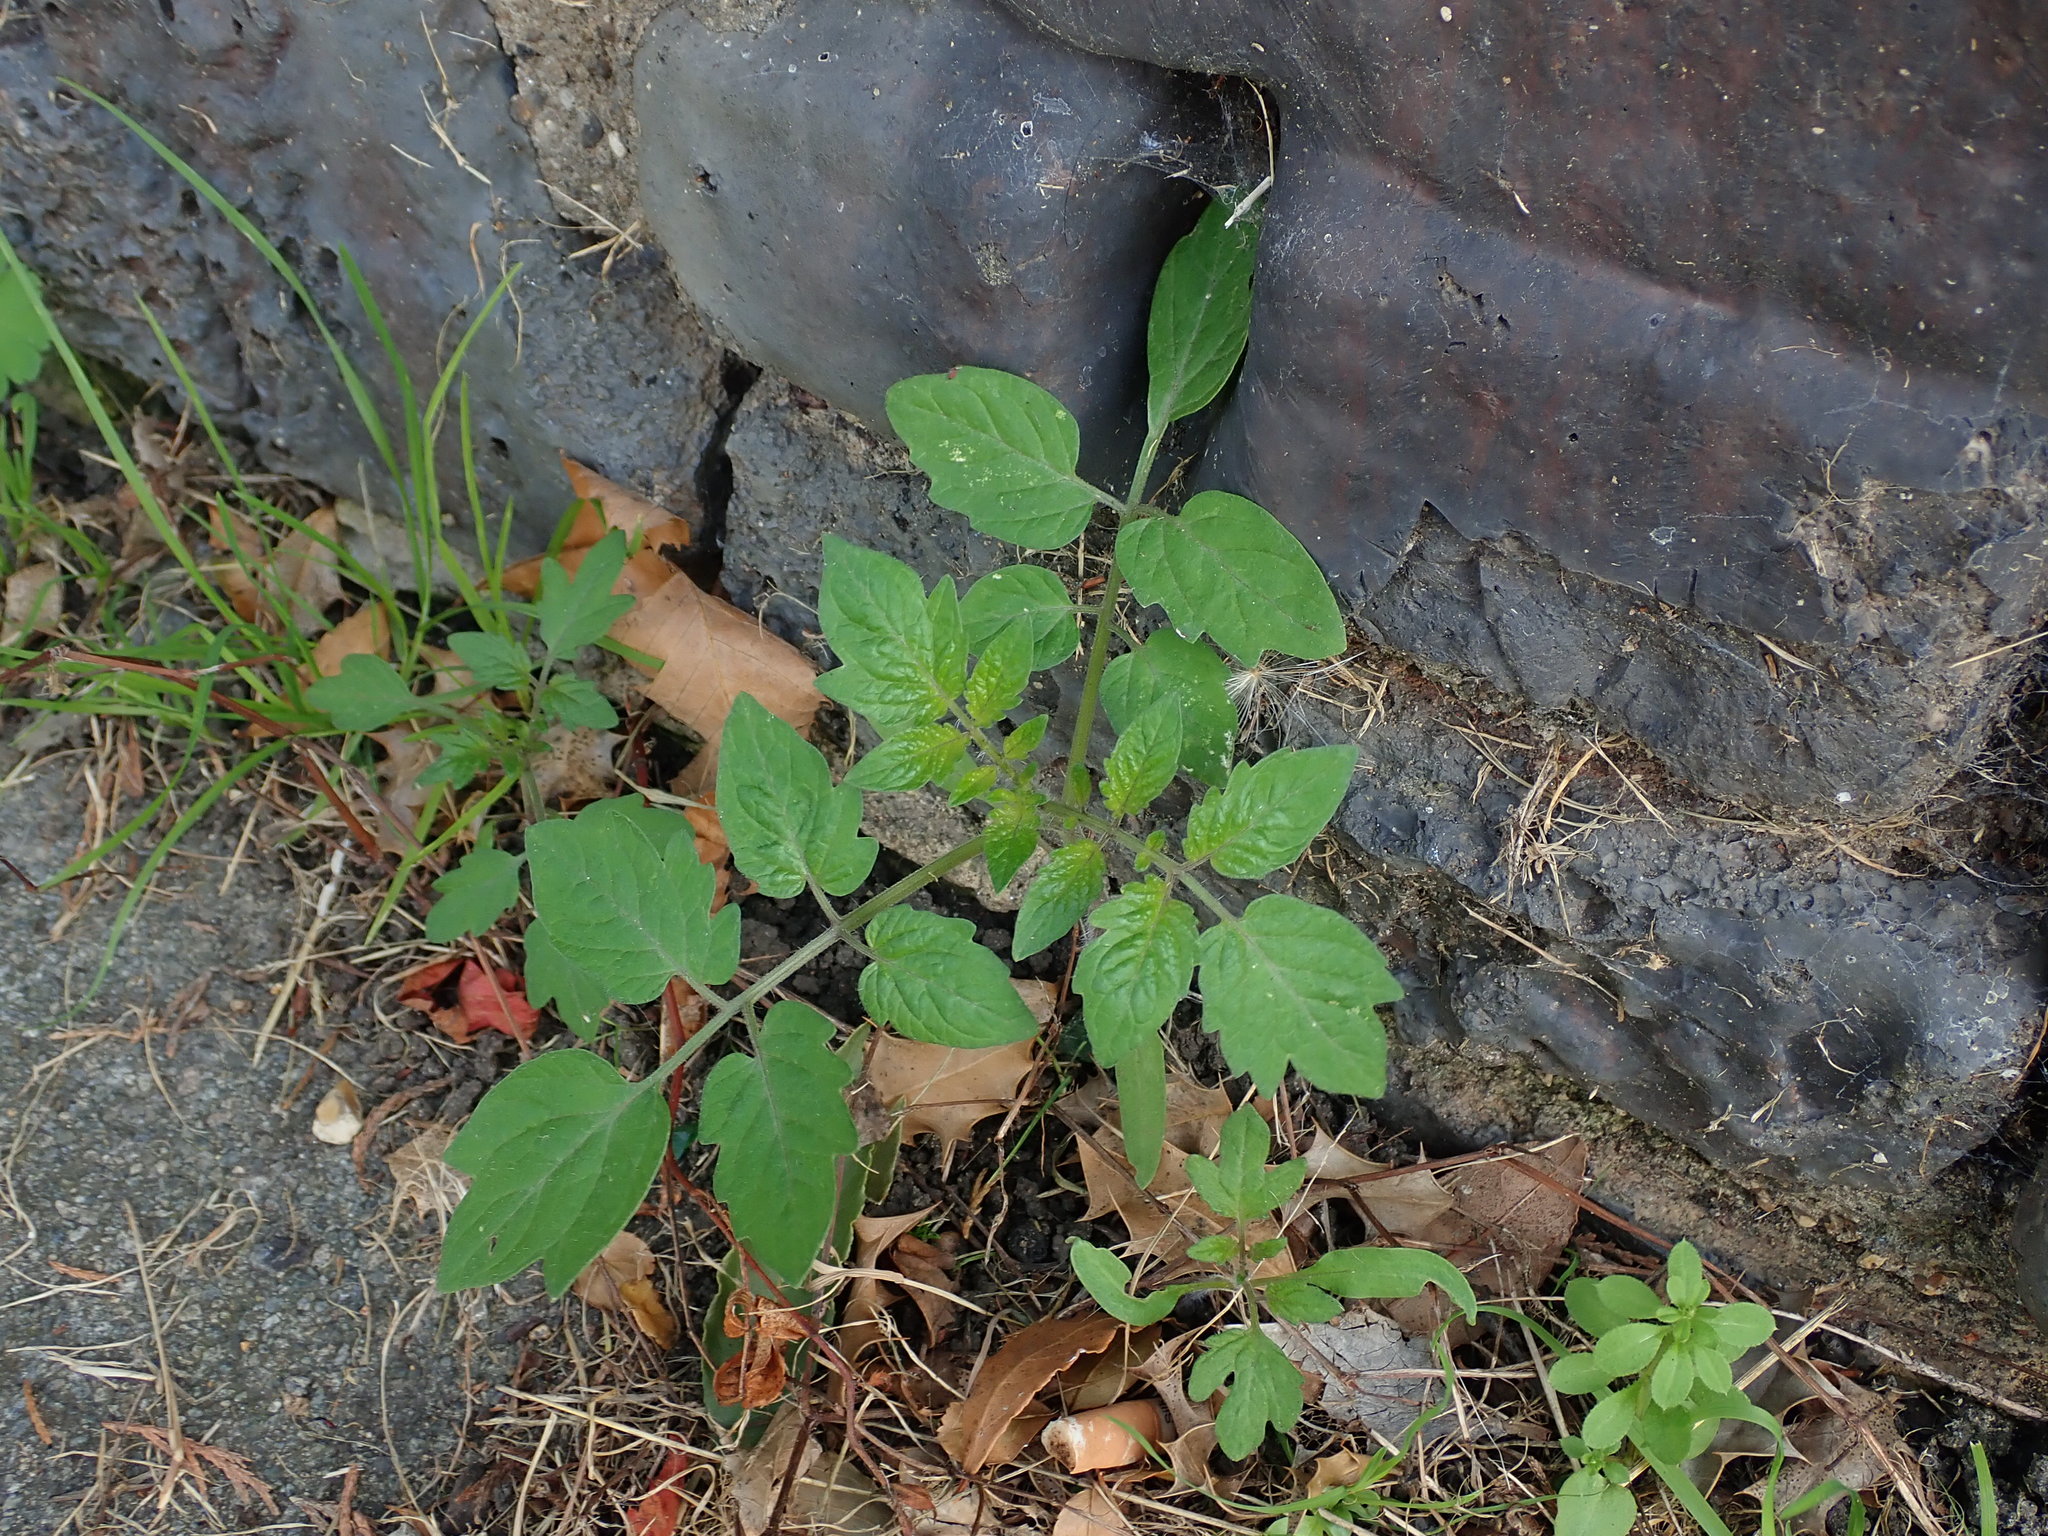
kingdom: Plantae
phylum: Tracheophyta
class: Magnoliopsida
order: Solanales
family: Solanaceae
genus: Solanum
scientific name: Solanum lycopersicum
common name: Garden tomato
